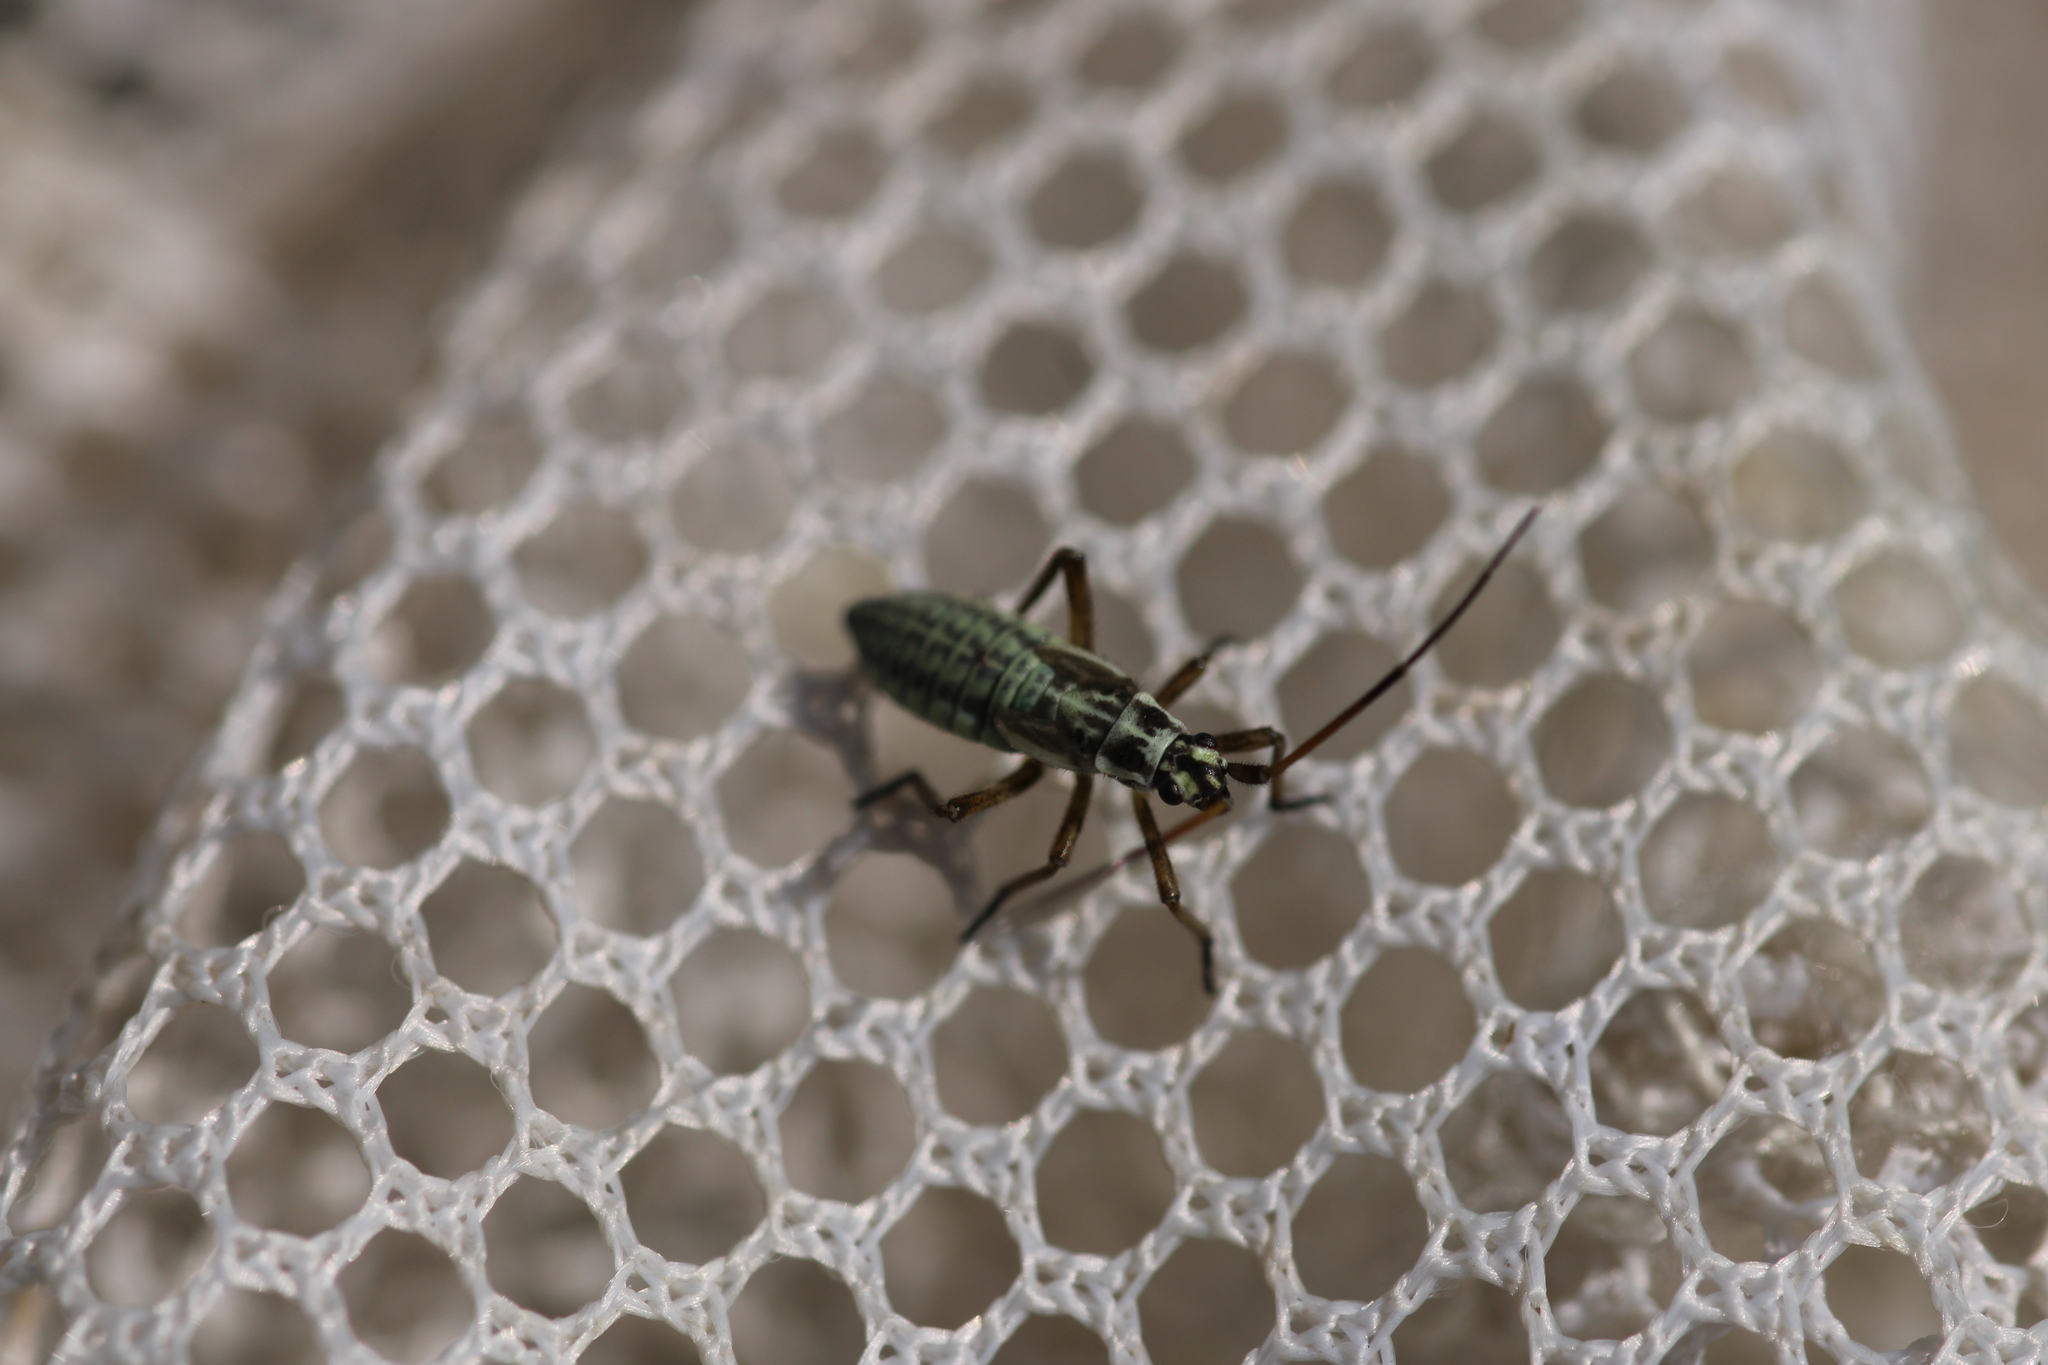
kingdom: Animalia
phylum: Arthropoda
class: Insecta
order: Hemiptera
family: Miridae
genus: Leptopterna
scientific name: Leptopterna dolabrata
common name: Meadow plant bug
